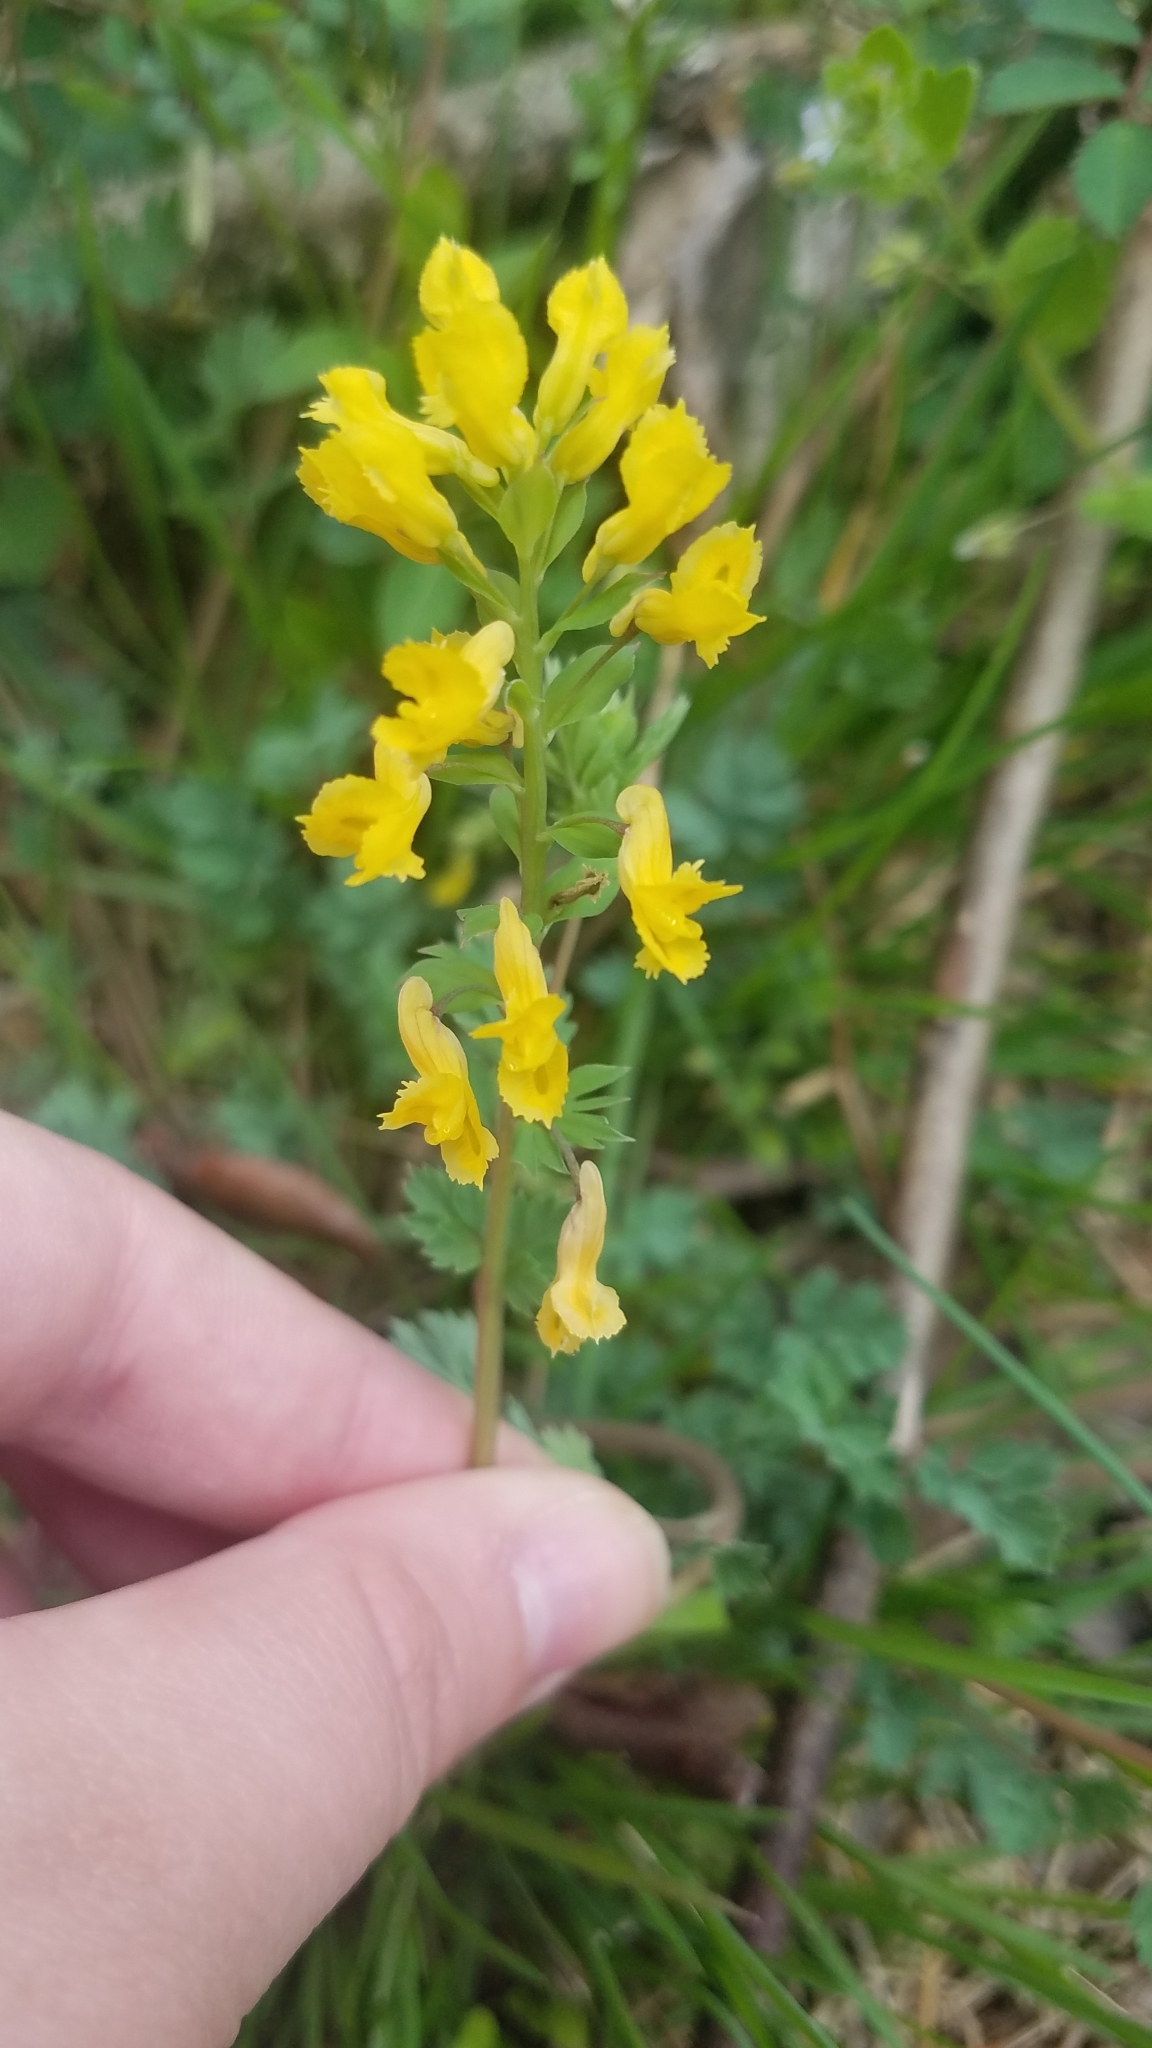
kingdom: Plantae
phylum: Tracheophyta
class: Magnoliopsida
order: Ranunculales
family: Papaveraceae
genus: Corydalis
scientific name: Corydalis flavula
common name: Yellow corydalis
